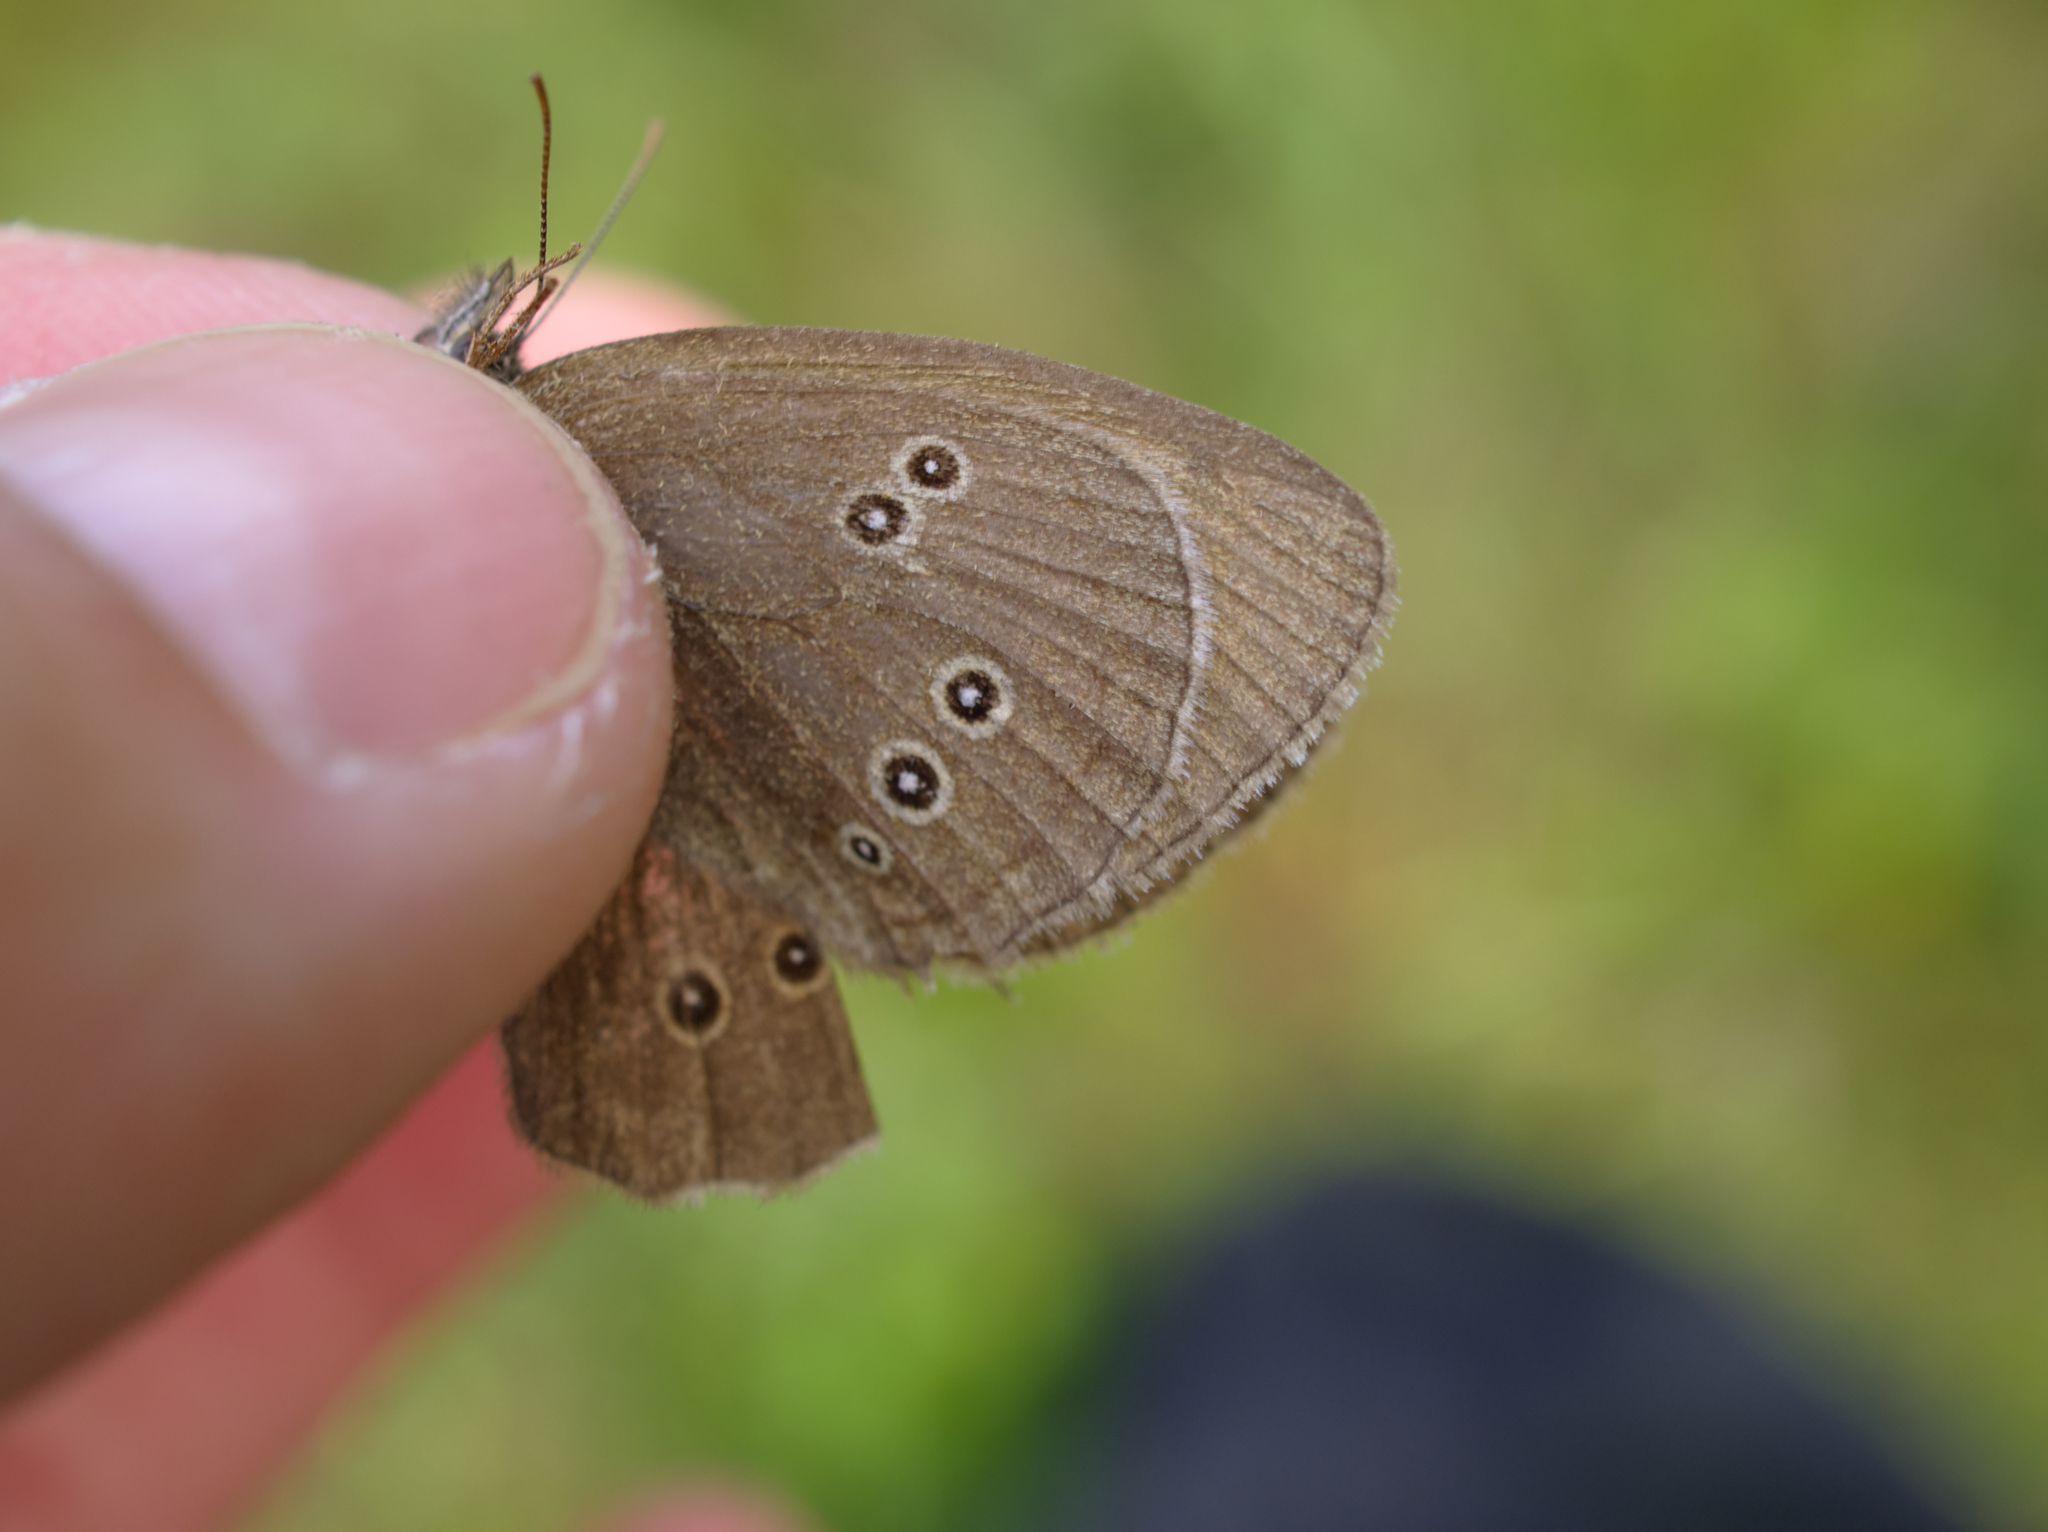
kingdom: Animalia
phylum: Arthropoda
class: Insecta
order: Lepidoptera
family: Nymphalidae
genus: Aphantopus
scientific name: Aphantopus hyperantus
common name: Ringlet
